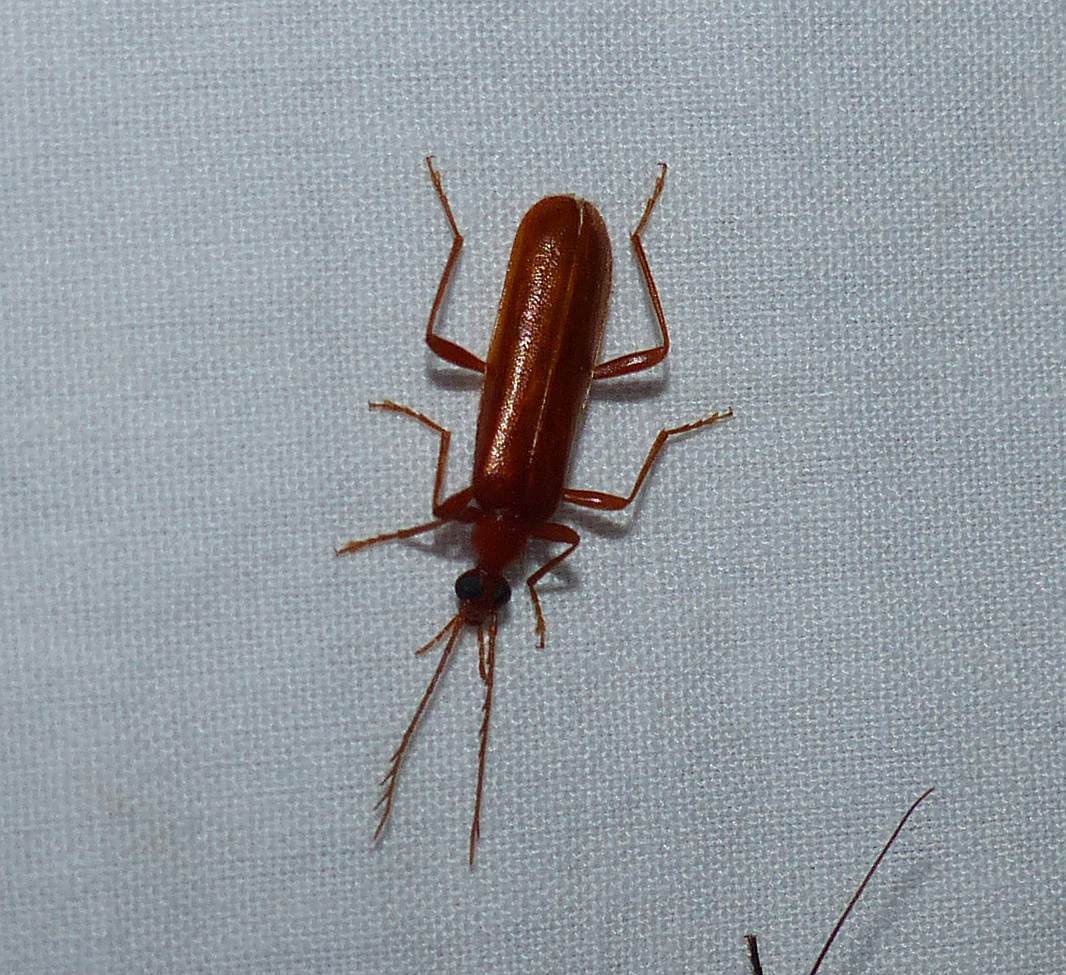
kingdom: Animalia
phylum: Arthropoda
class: Insecta
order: Coleoptera
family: Pyrochroidae
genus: Dendroides
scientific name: Dendroides concolor
